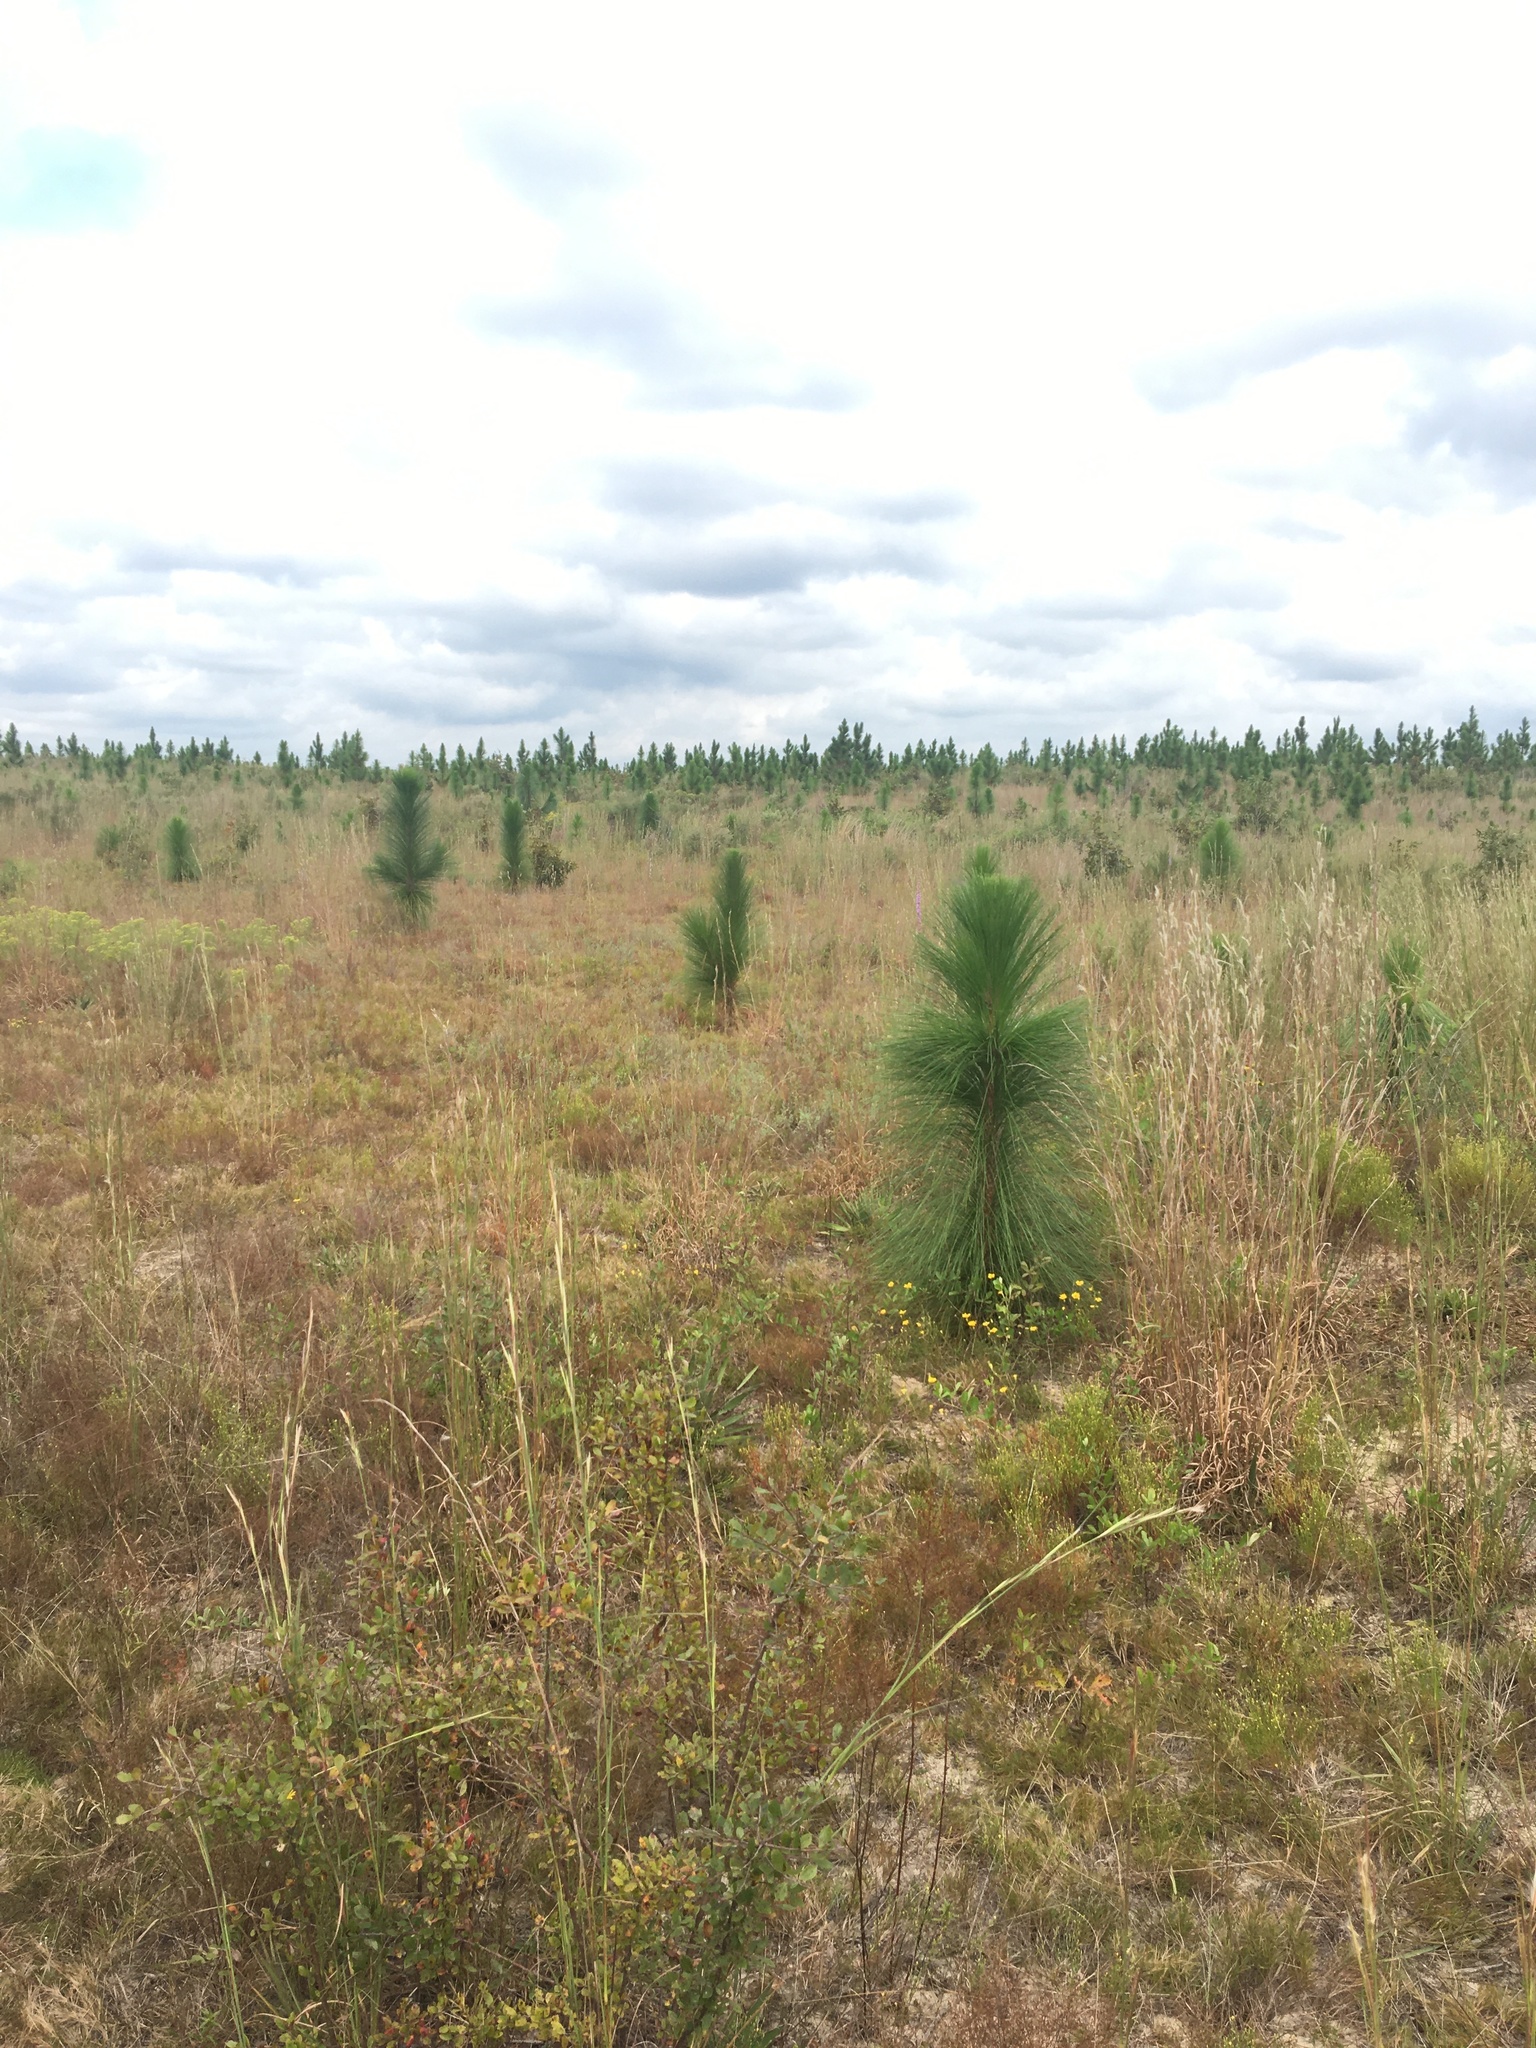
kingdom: Plantae
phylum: Tracheophyta
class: Pinopsida
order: Pinales
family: Pinaceae
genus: Pinus
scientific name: Pinus palustris
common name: Longleaf pine
